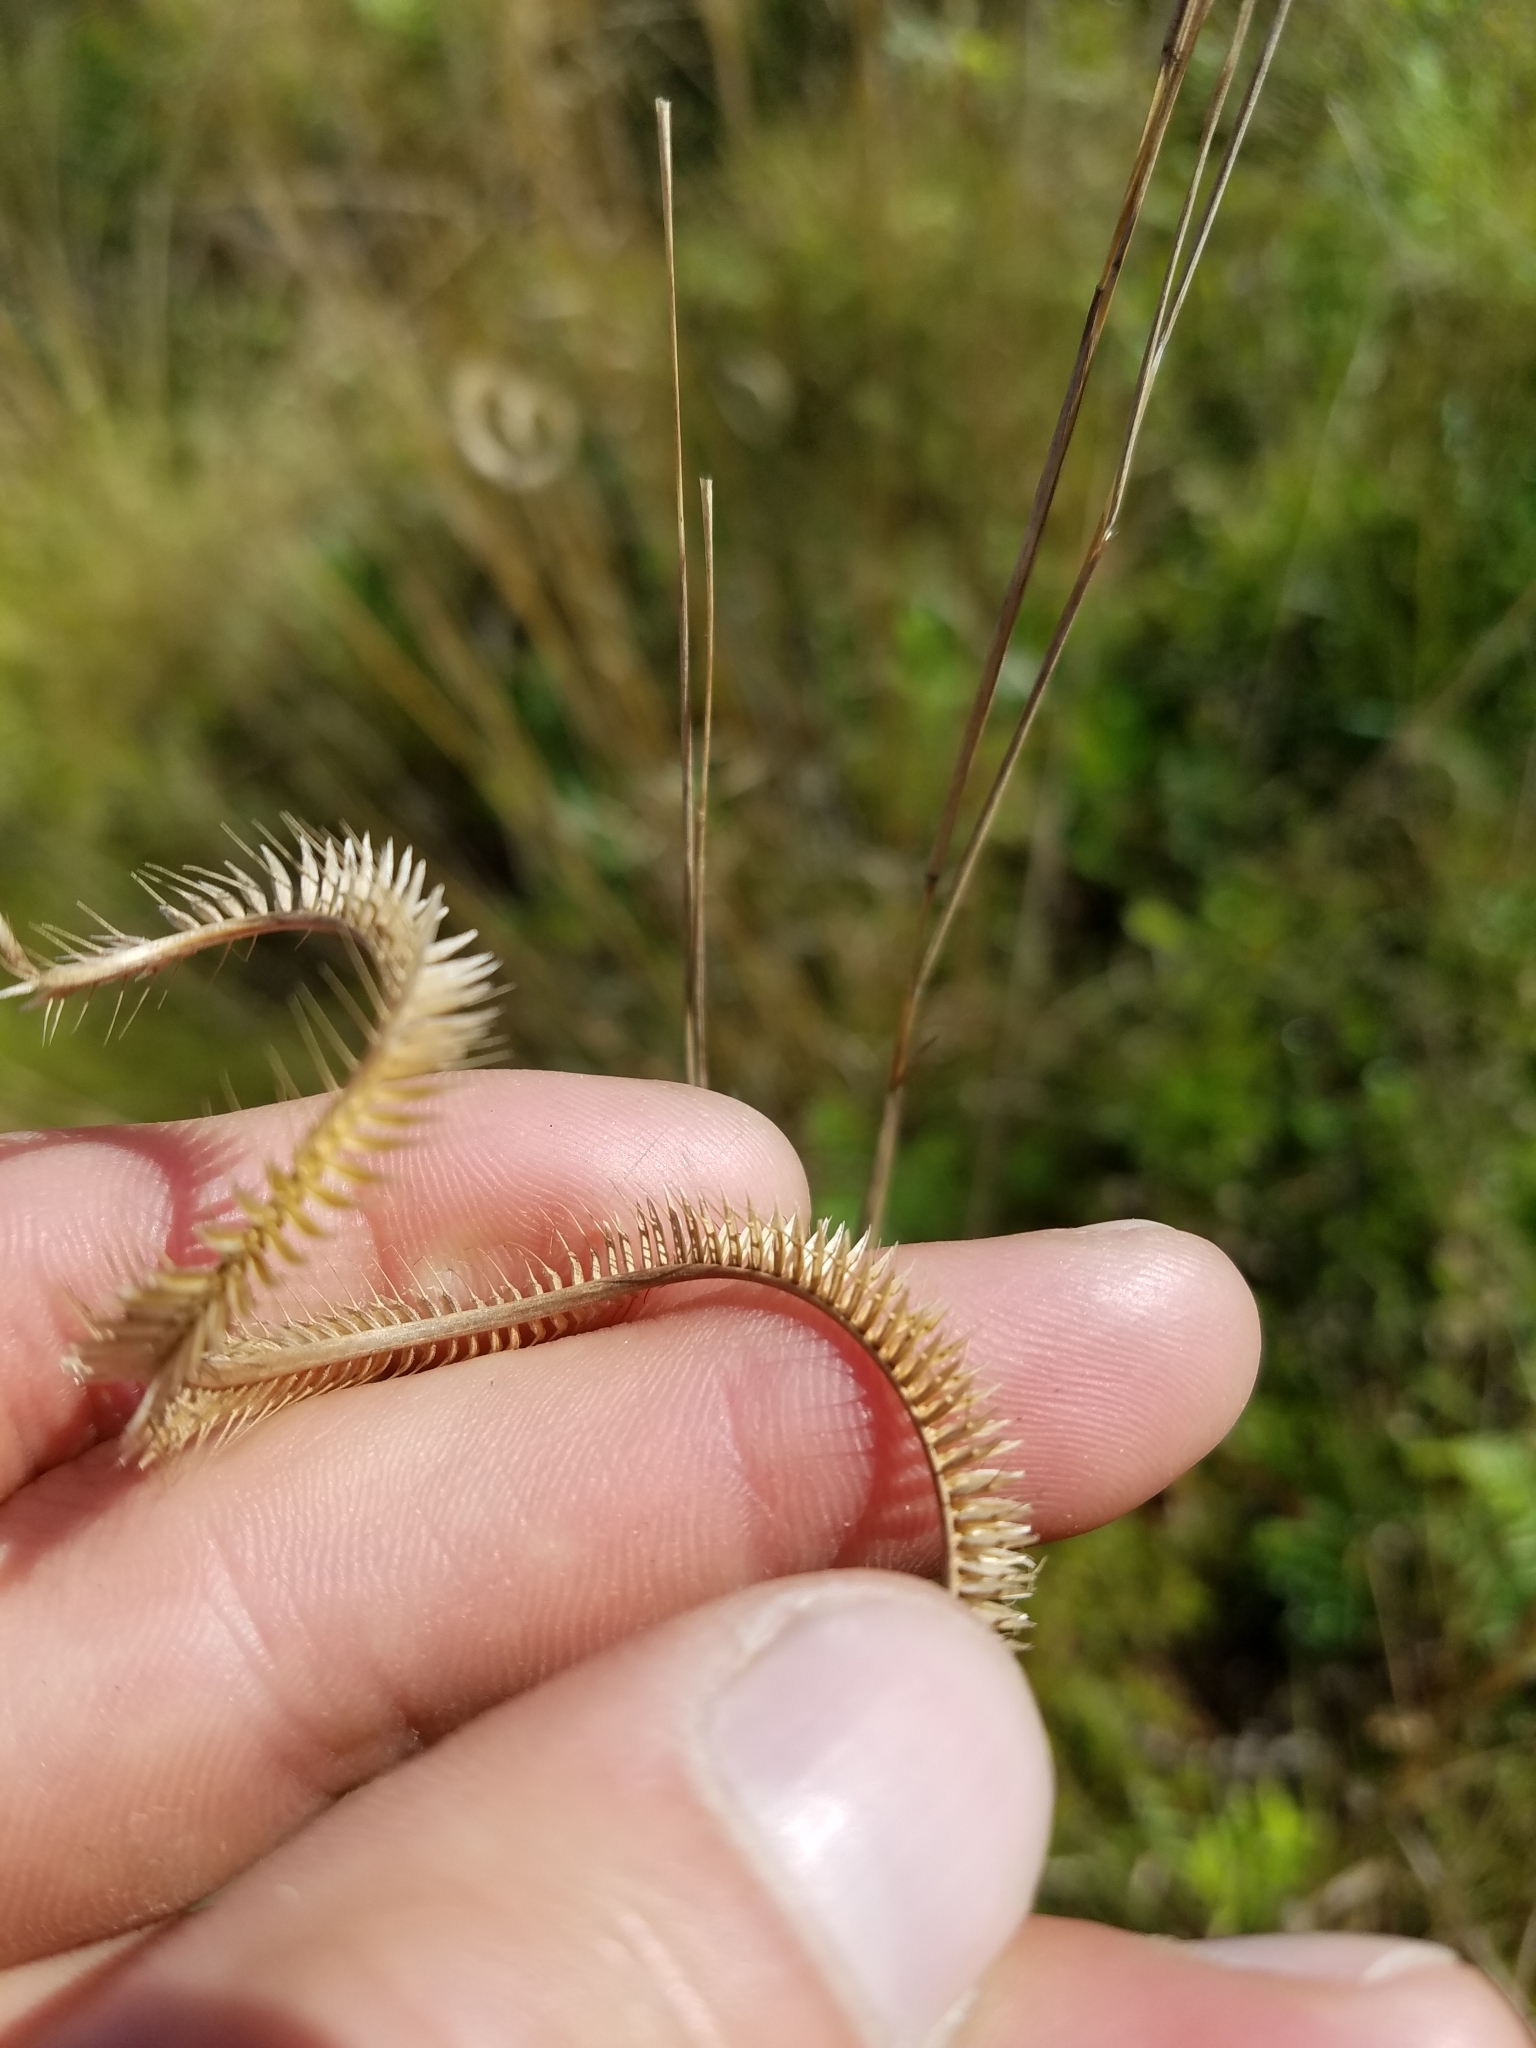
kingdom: Plantae
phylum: Tracheophyta
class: Liliopsida
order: Poales
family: Poaceae
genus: Ctenium
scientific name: Ctenium floridanum
